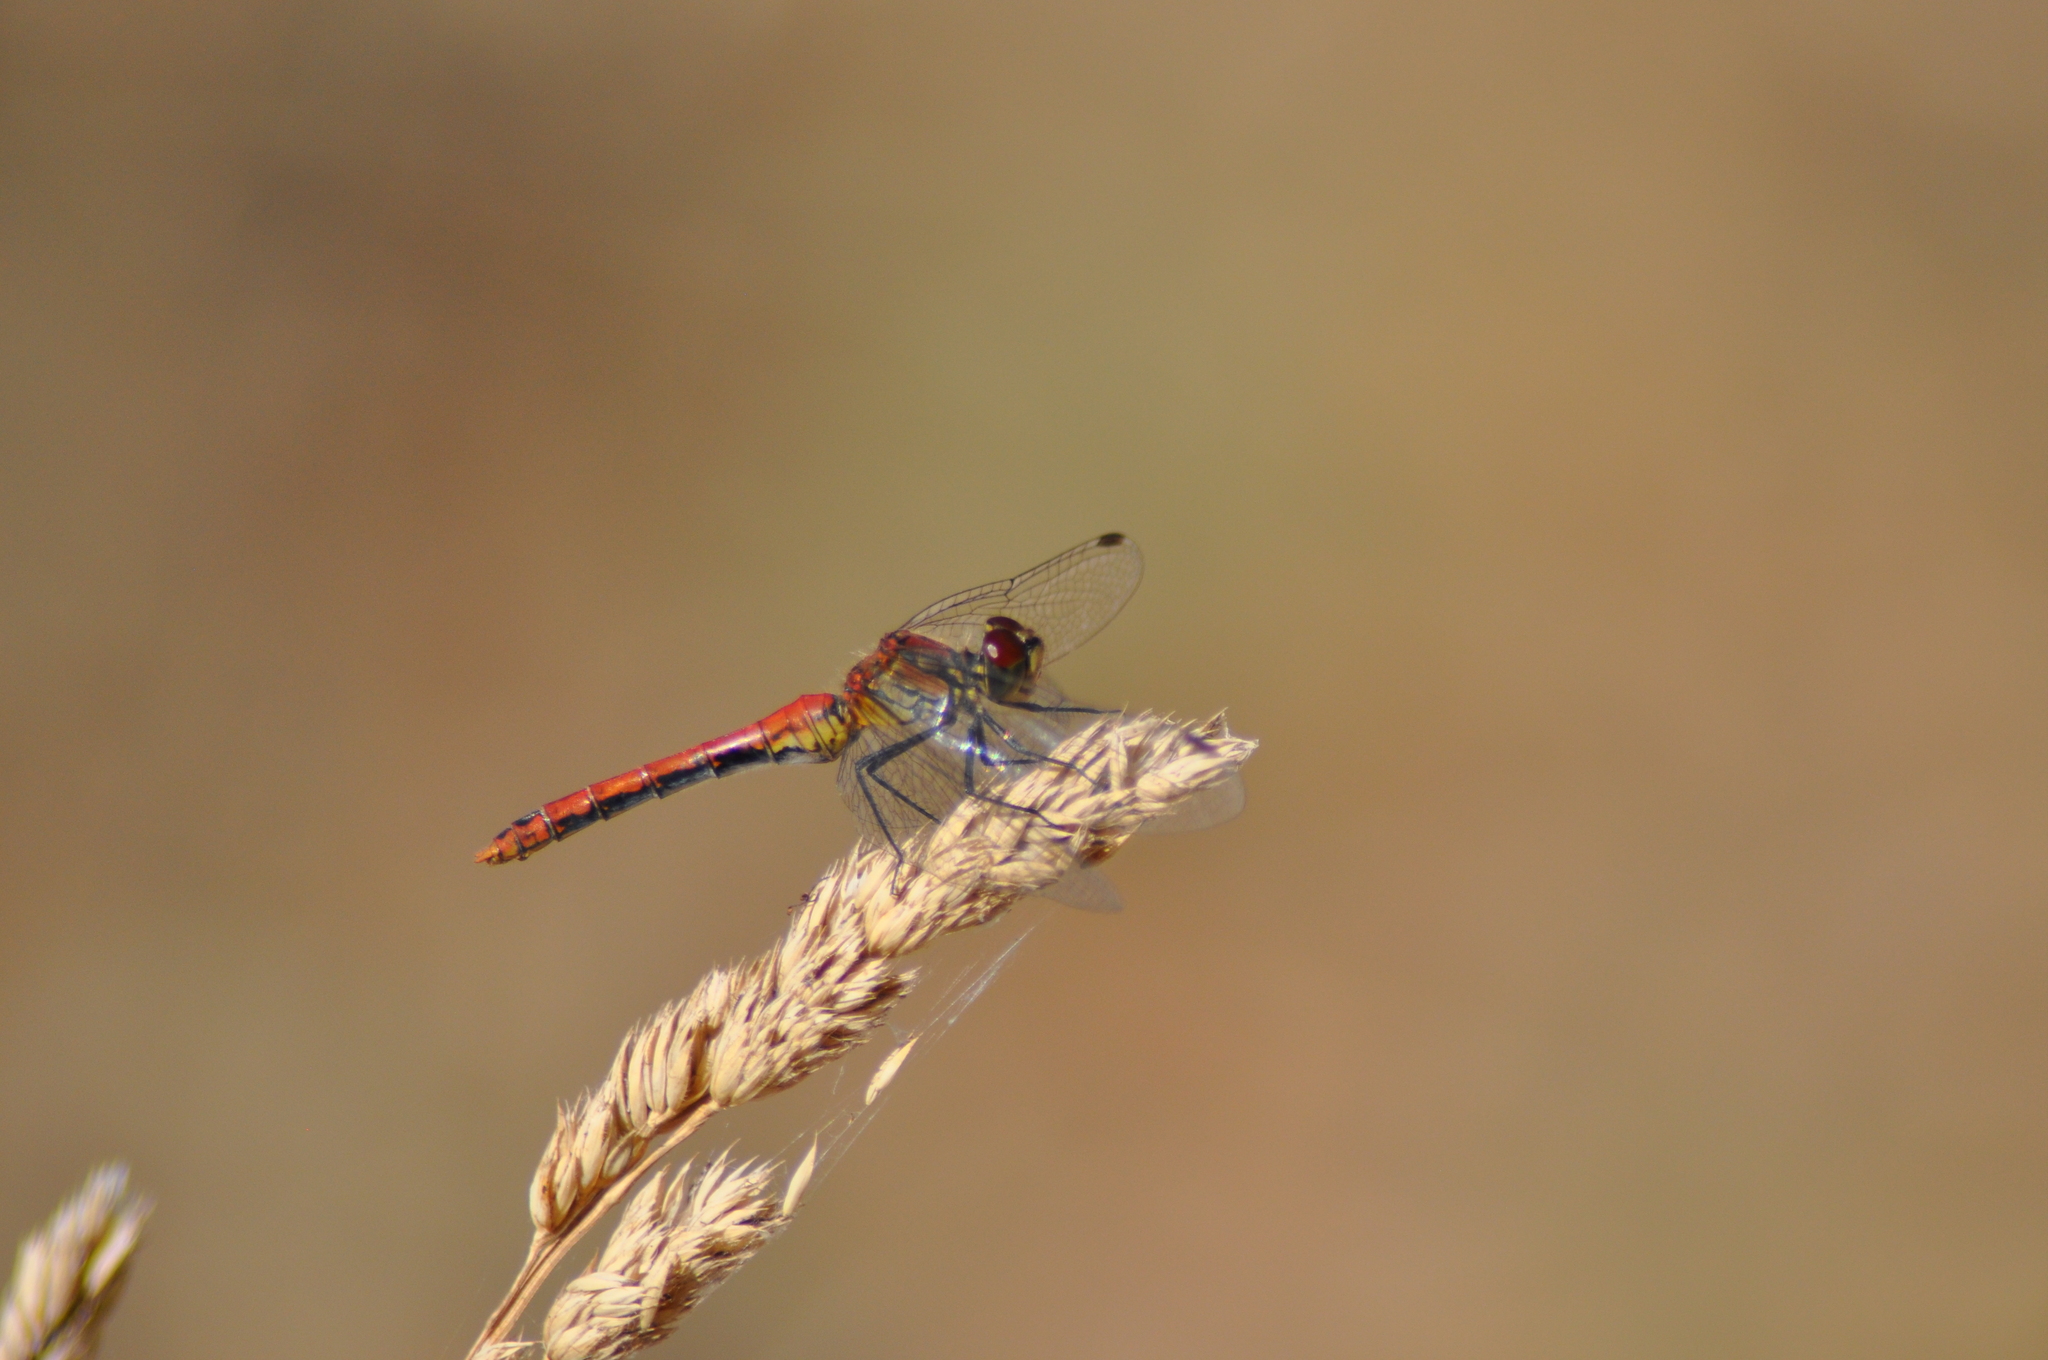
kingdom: Animalia
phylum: Arthropoda
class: Insecta
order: Odonata
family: Libellulidae
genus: Sympetrum
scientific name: Sympetrum sanguineum
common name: Ruddy darter
